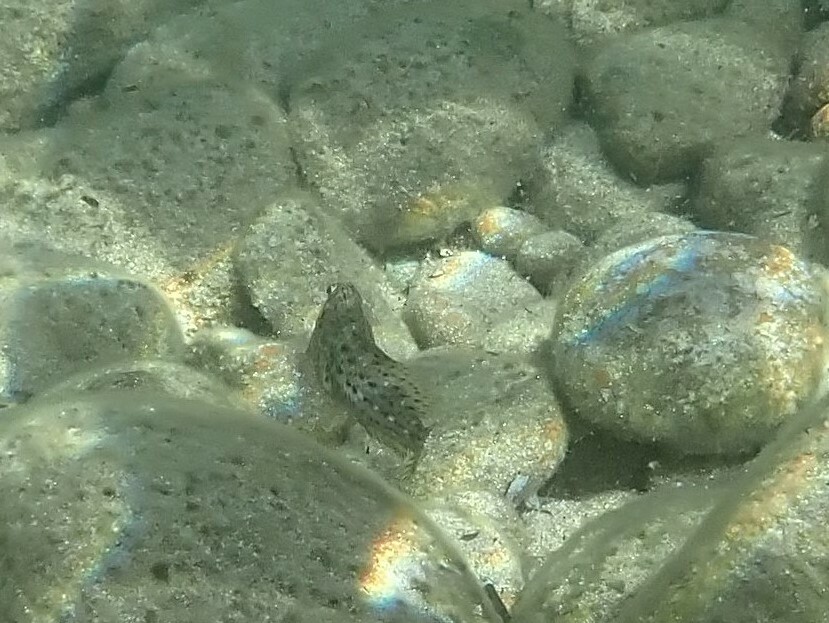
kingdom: Animalia
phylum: Chordata
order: Perciformes
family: Blenniidae
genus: Parablennius
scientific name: Parablennius sanguinolentus
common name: Black sea blenny
